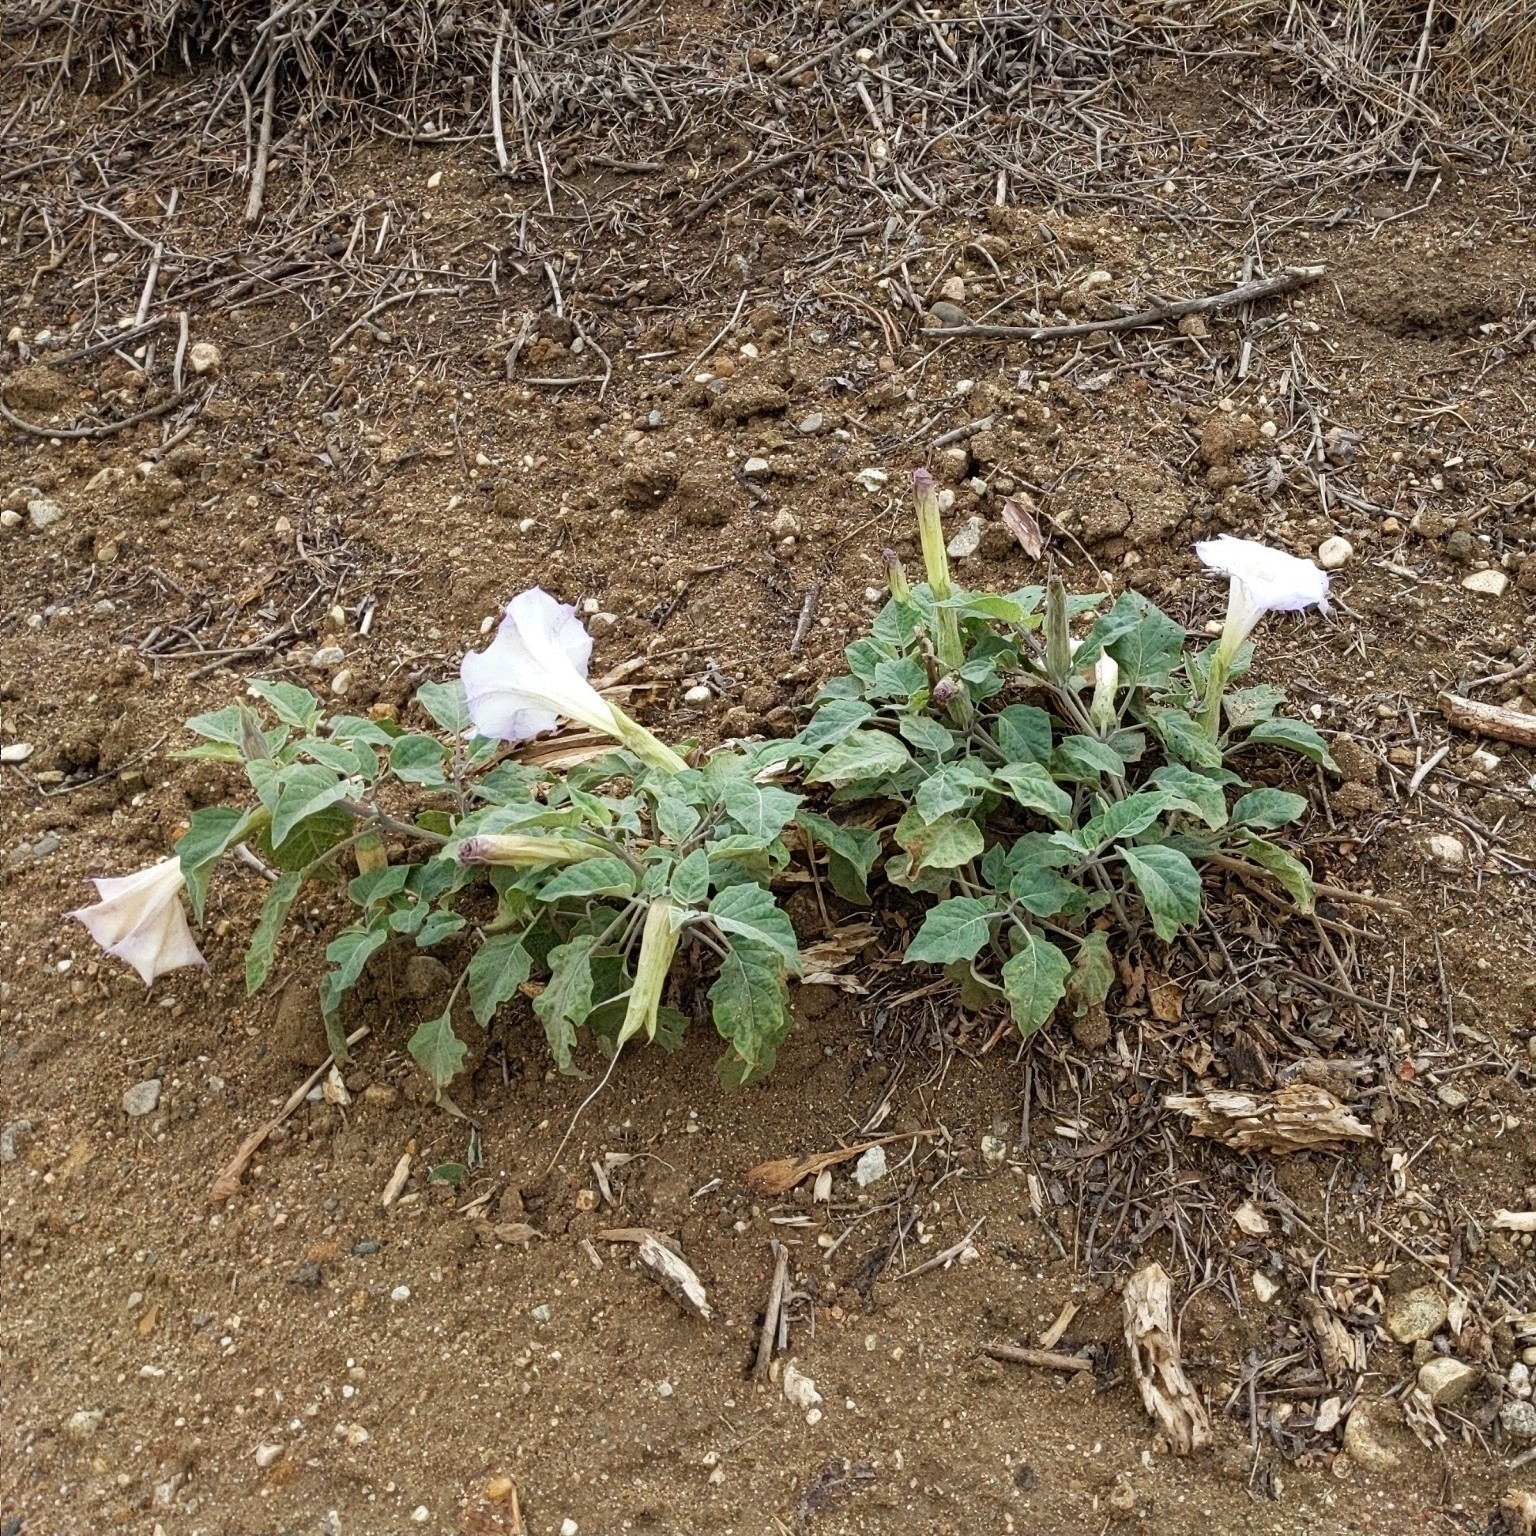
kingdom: Plantae
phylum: Tracheophyta
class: Magnoliopsida
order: Solanales
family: Solanaceae
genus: Datura
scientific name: Datura wrightii
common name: Sacred thorn-apple
